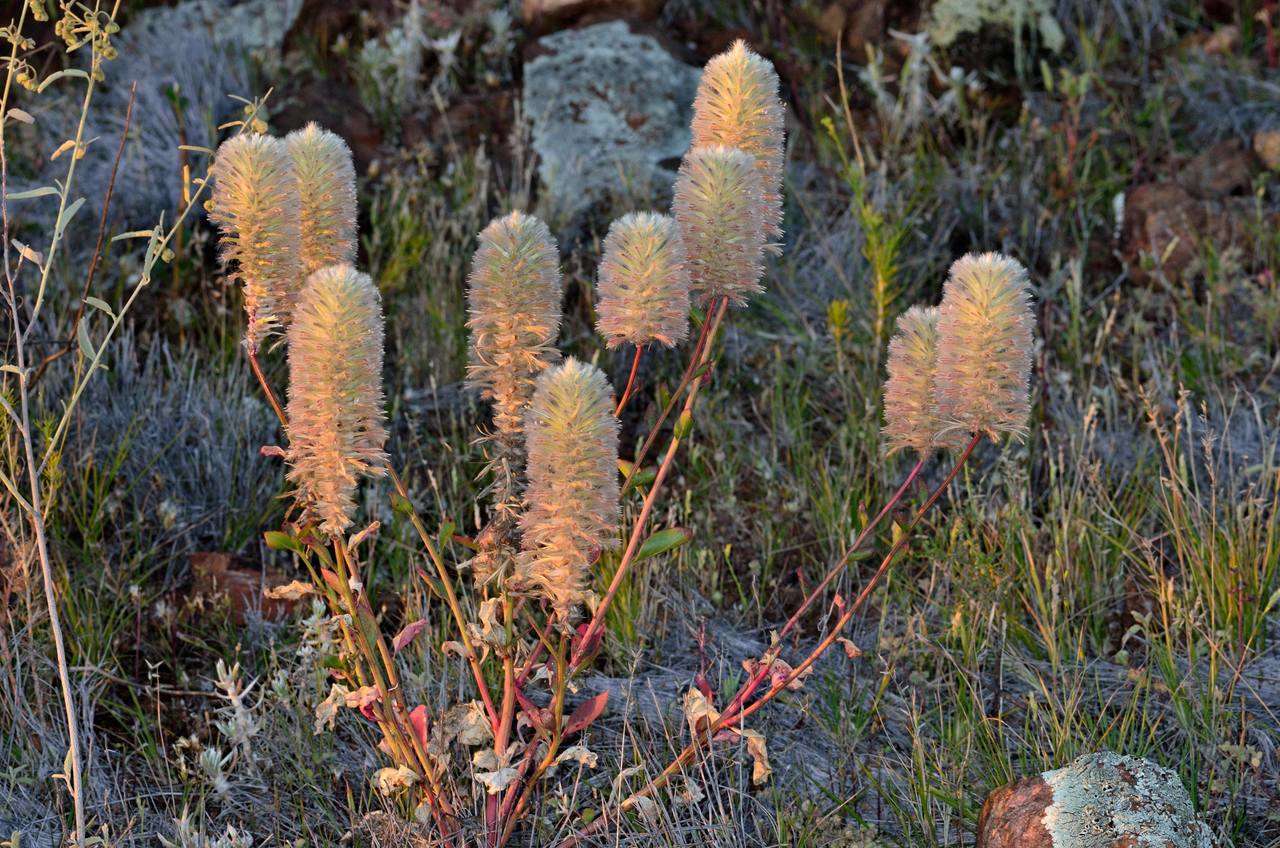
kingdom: Plantae
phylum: Tracheophyta
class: Magnoliopsida
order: Caryophyllales
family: Amaranthaceae
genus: Ptilotus
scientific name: Ptilotus nobilis
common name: Regal-foxtail
